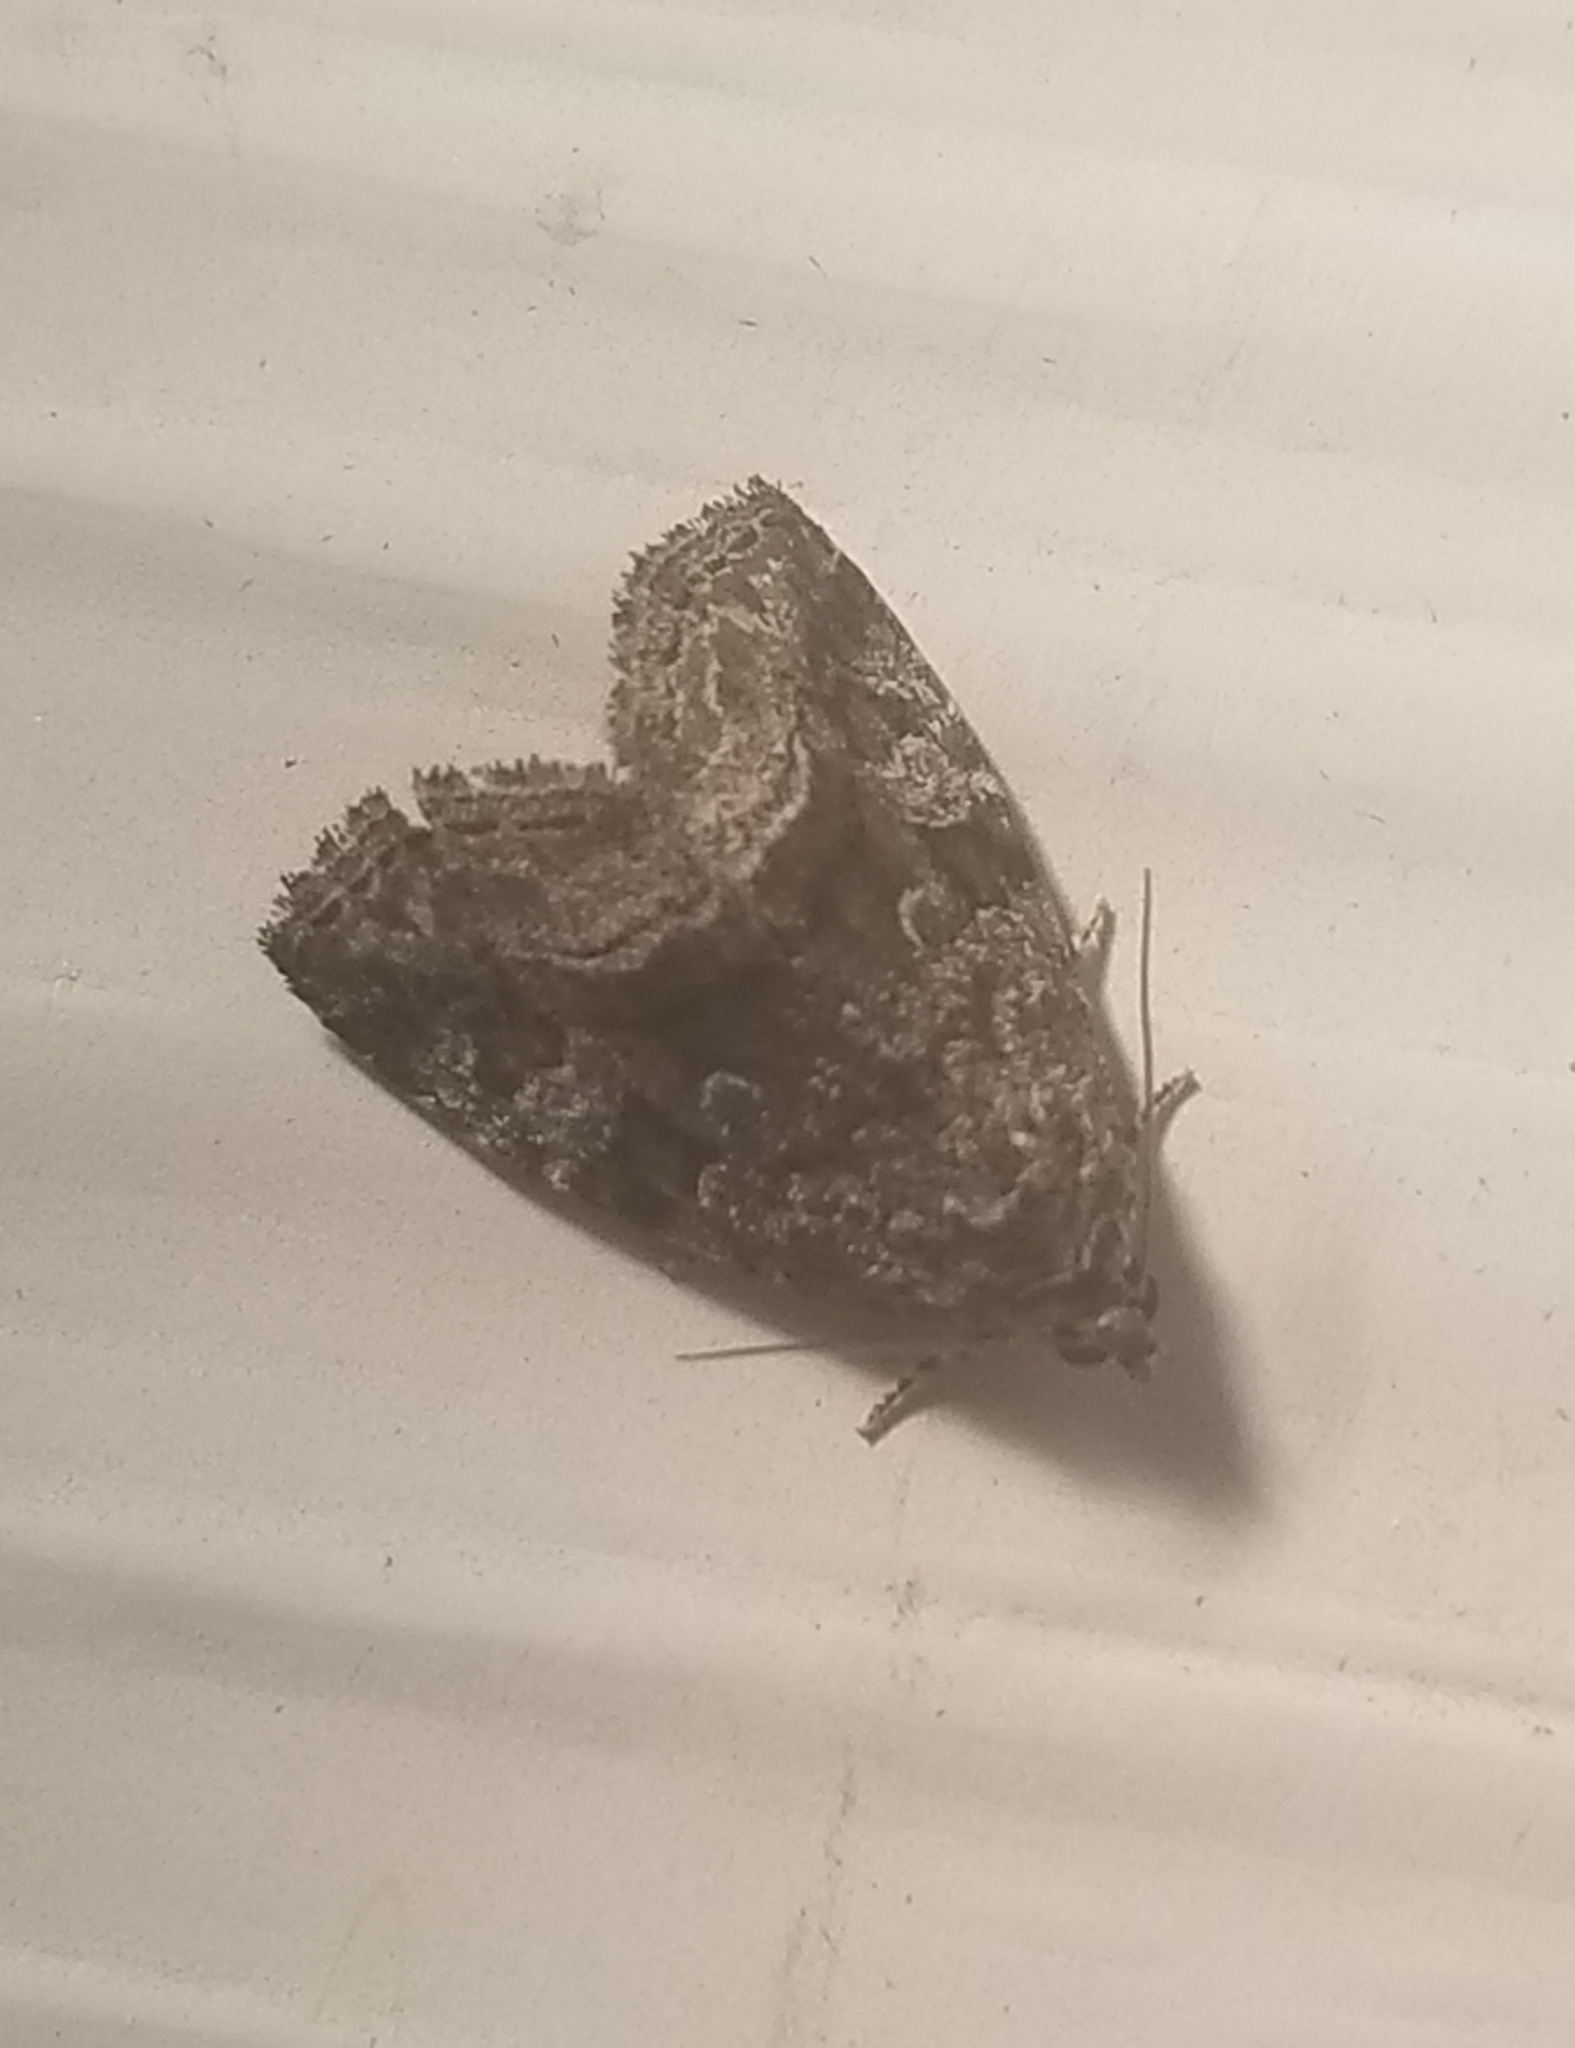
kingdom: Animalia
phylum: Arthropoda
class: Insecta
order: Lepidoptera
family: Noctuidae
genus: Protodeltote
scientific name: Protodeltote muscosula
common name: Large mossy glyph
